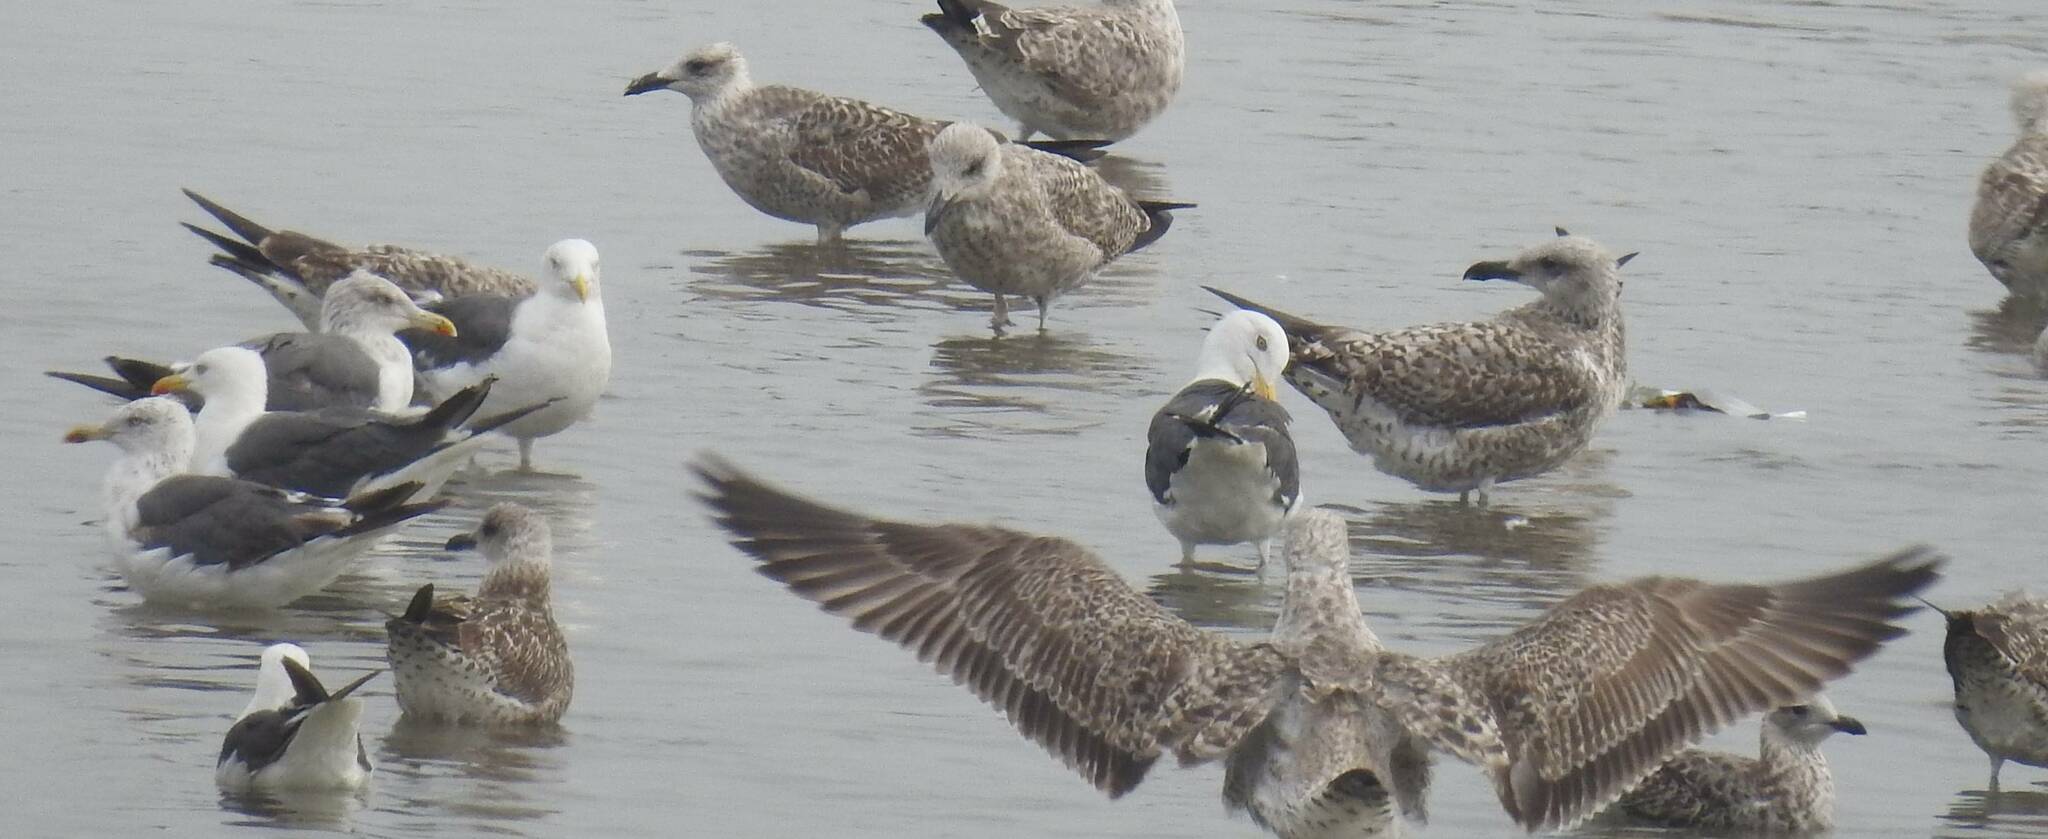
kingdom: Animalia
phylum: Chordata
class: Aves
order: Charadriiformes
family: Laridae
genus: Larus
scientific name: Larus michahellis
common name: Yellow-legged gull
